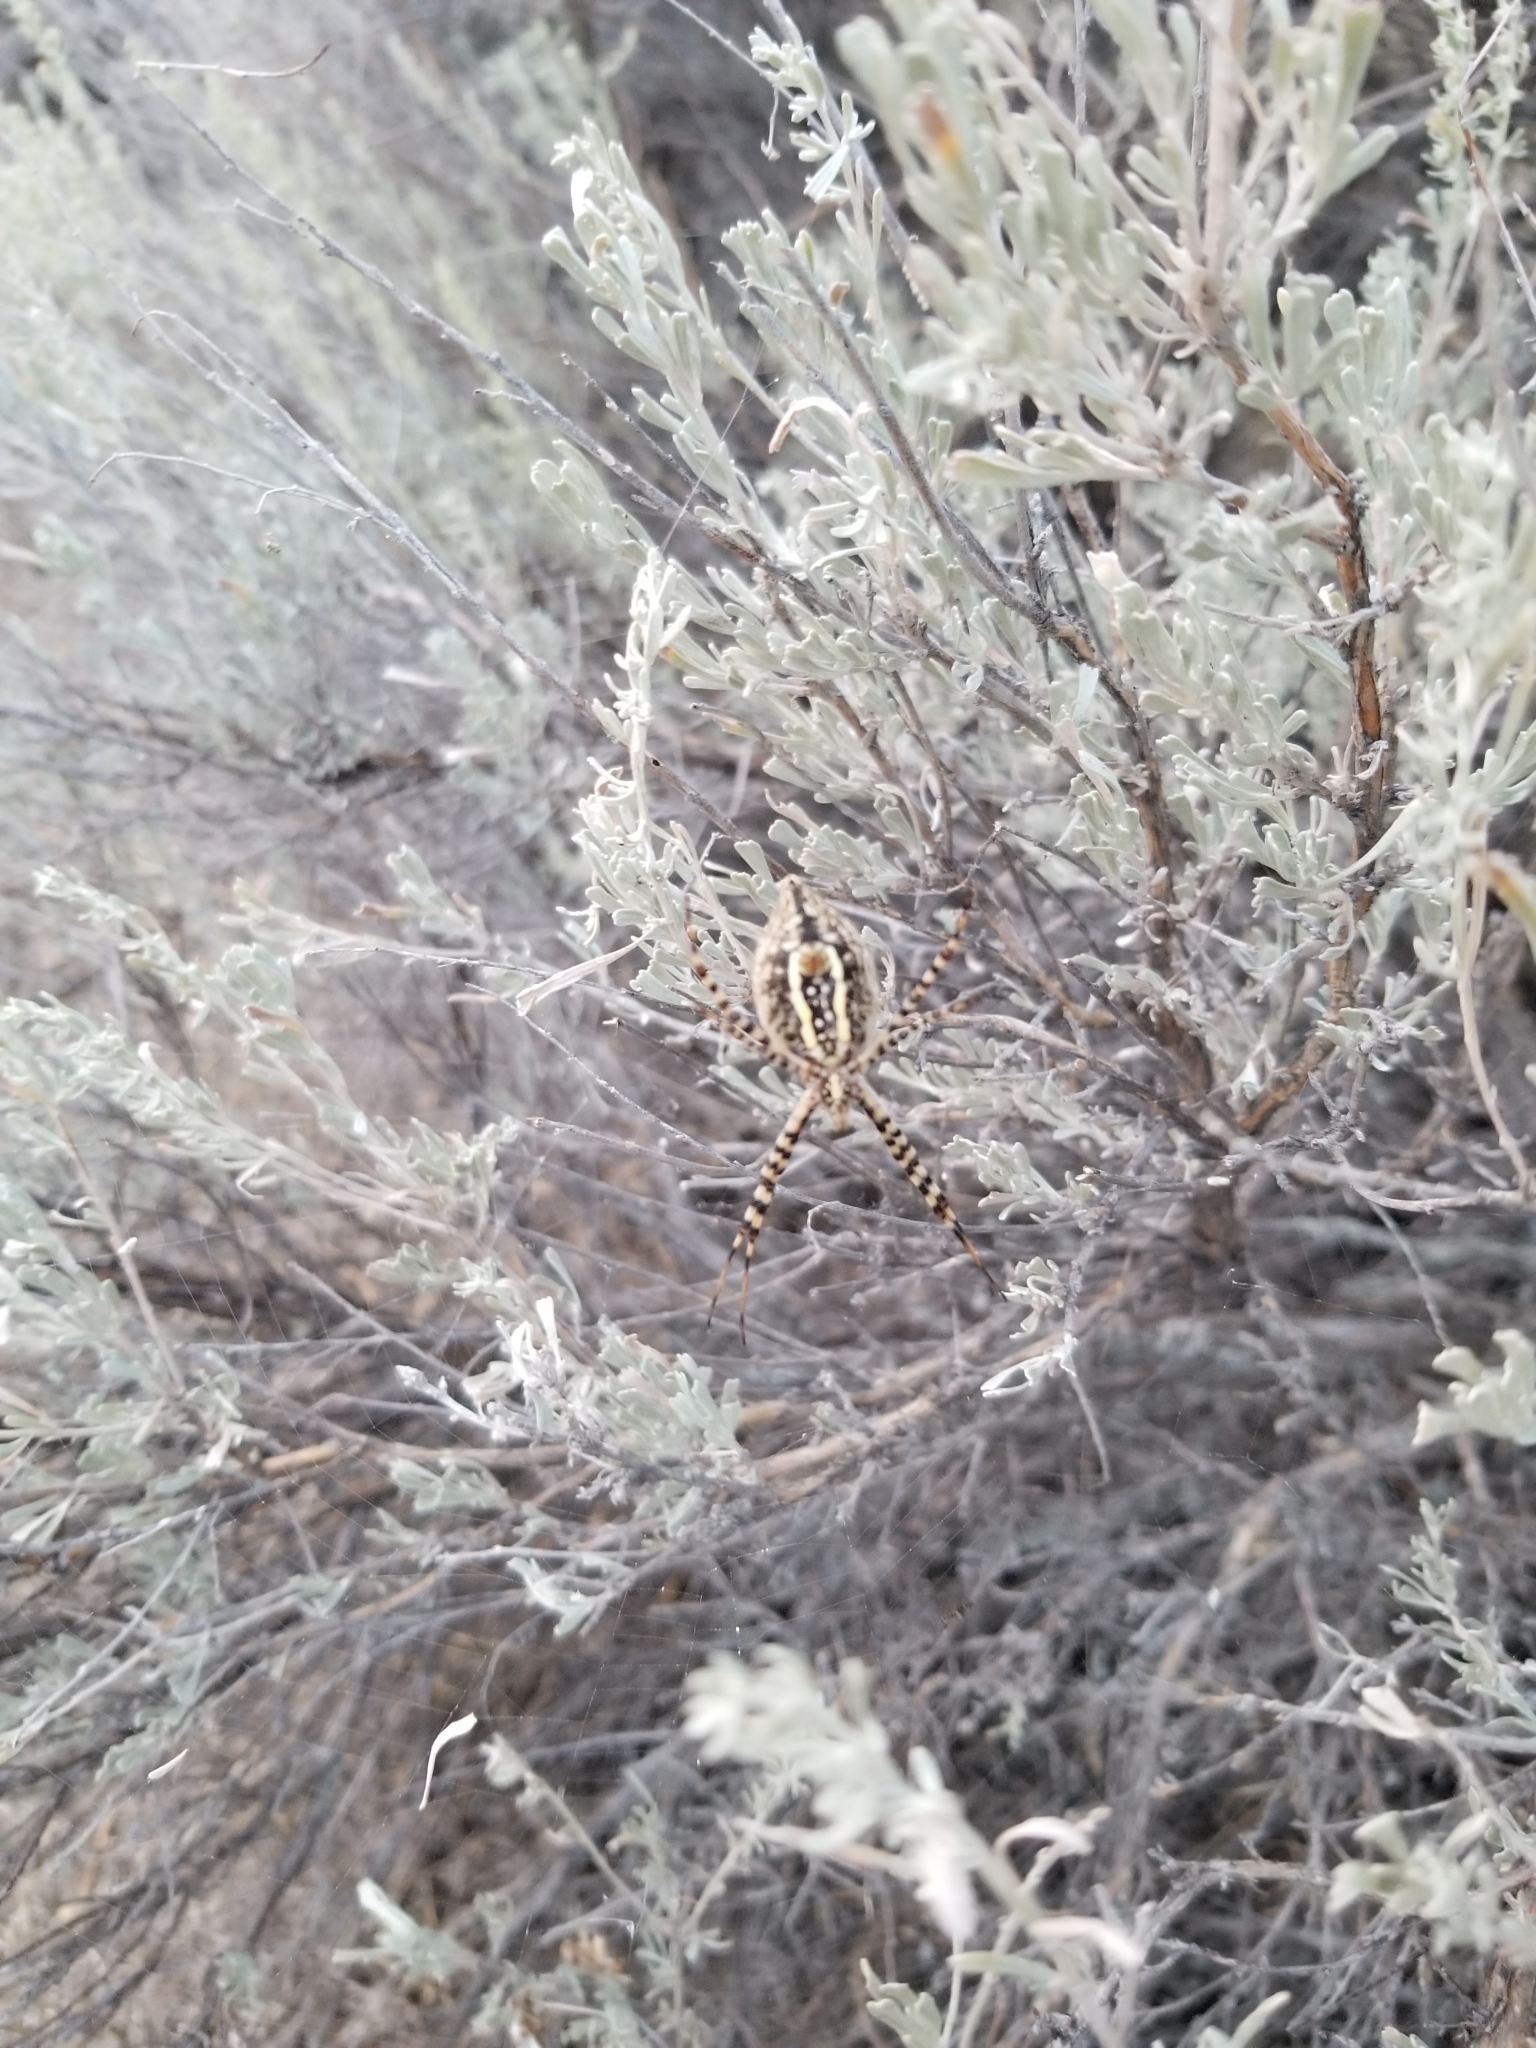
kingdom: Animalia
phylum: Arthropoda
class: Arachnida
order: Araneae
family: Araneidae
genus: Argiope
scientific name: Argiope trifasciata
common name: Banded garden spider
